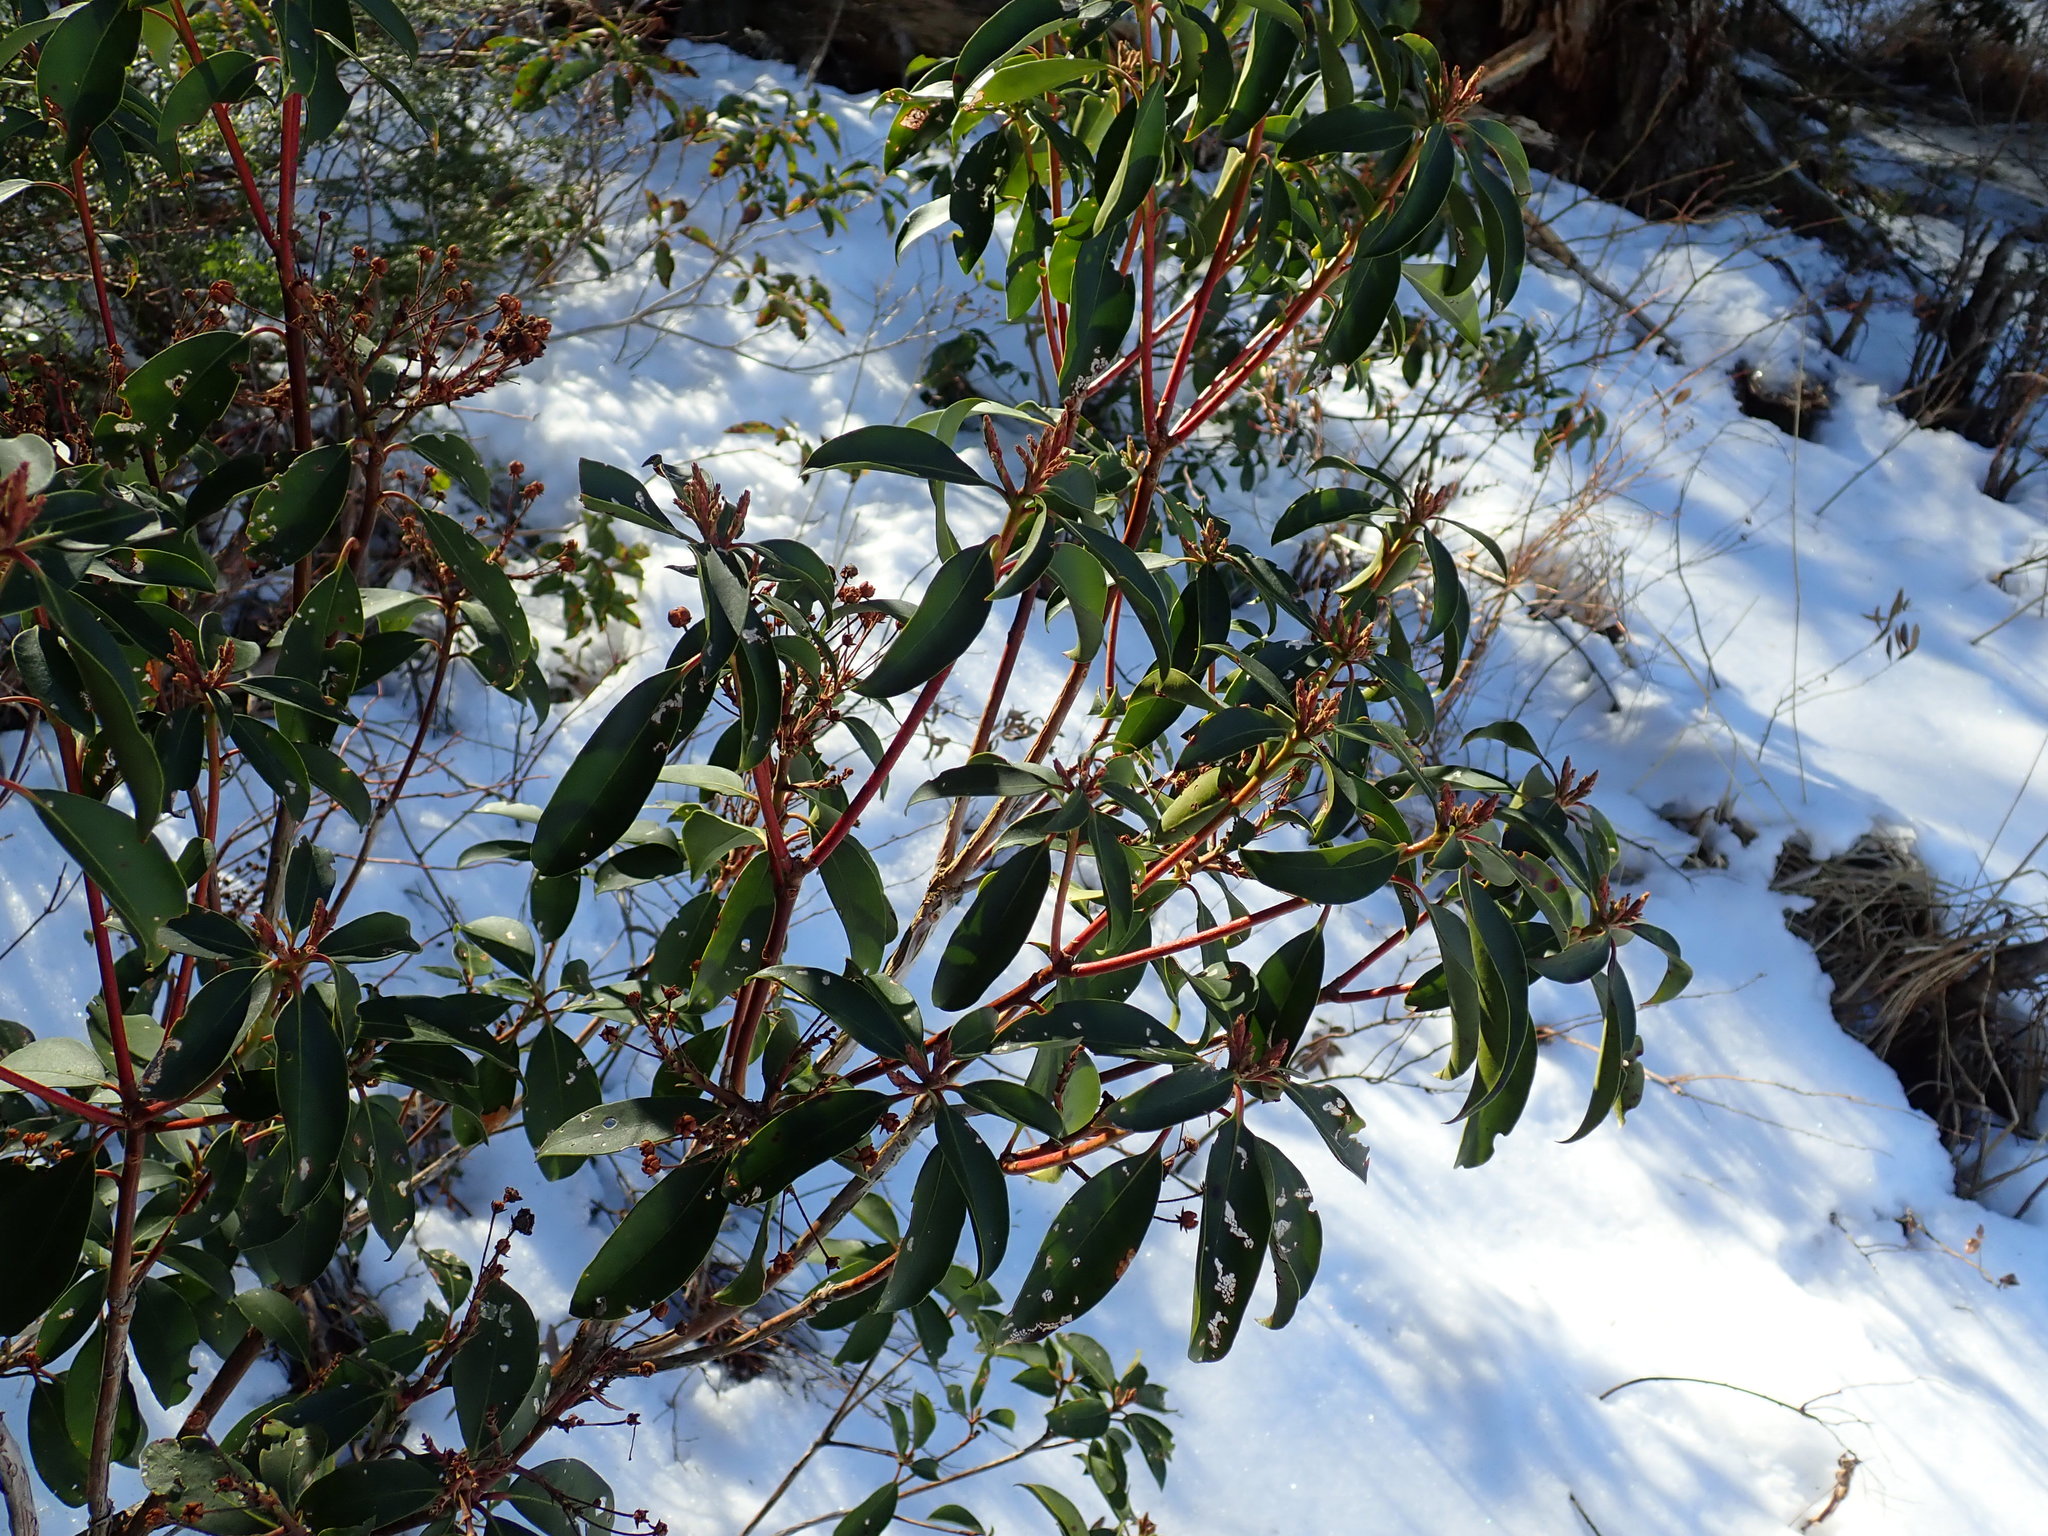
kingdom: Plantae
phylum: Tracheophyta
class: Magnoliopsida
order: Ericales
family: Ericaceae
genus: Kalmia
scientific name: Kalmia latifolia
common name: Mountain-laurel
